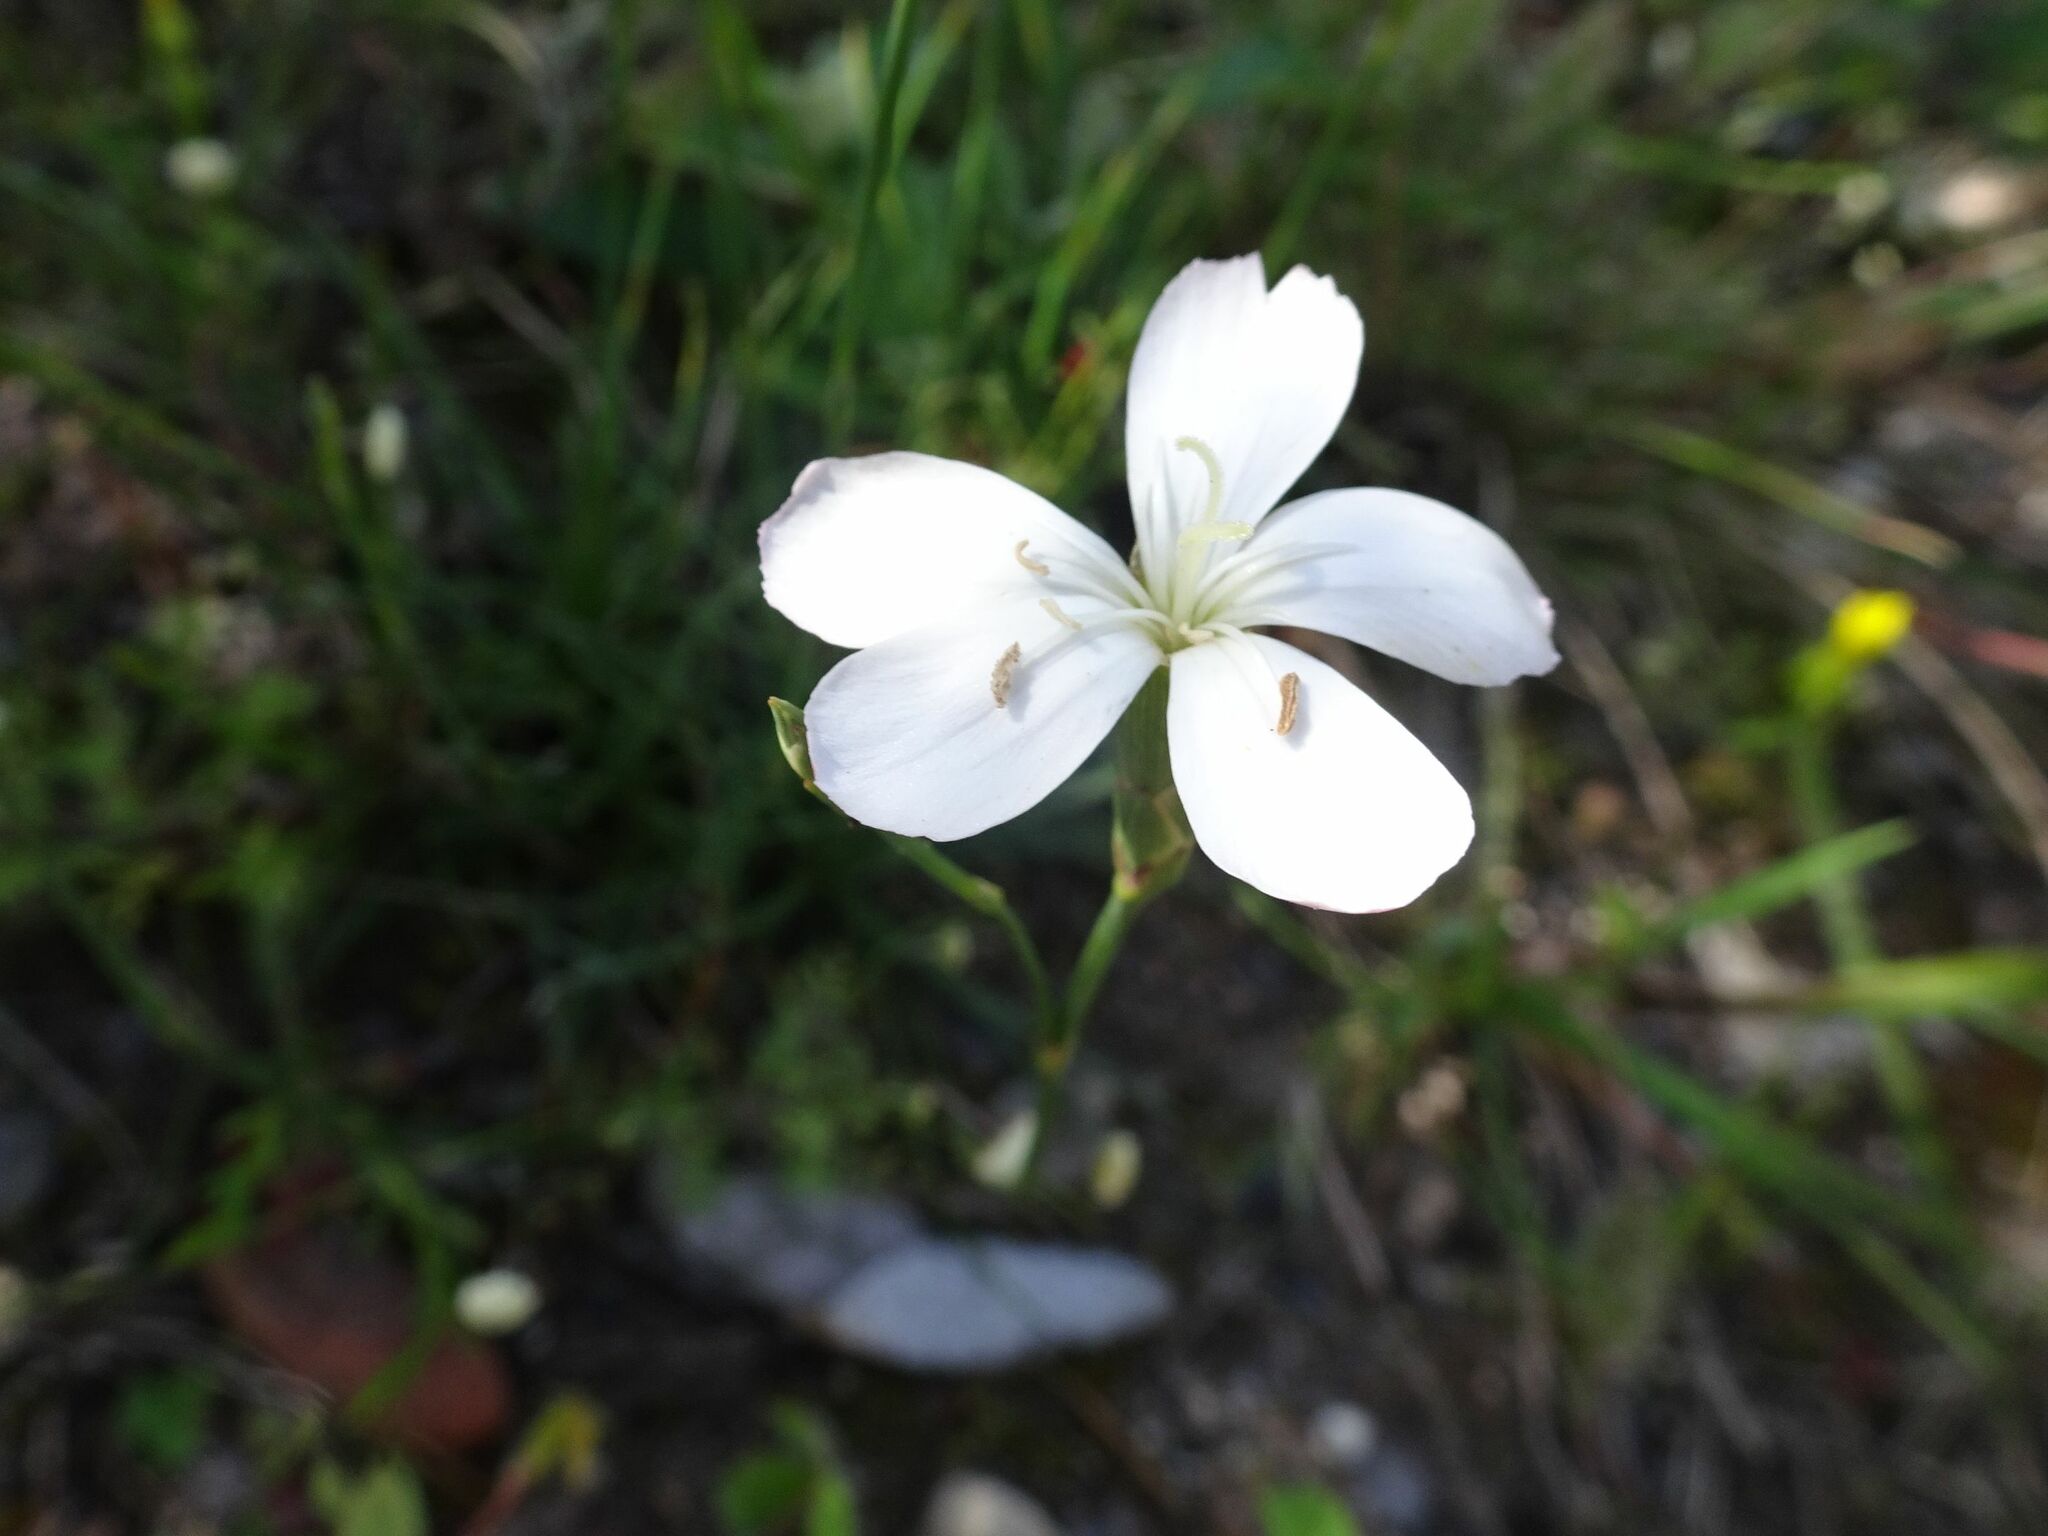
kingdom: Plantae
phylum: Tracheophyta
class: Magnoliopsida
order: Caryophyllales
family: Caryophyllaceae
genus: Dianthus
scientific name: Dianthus albens
